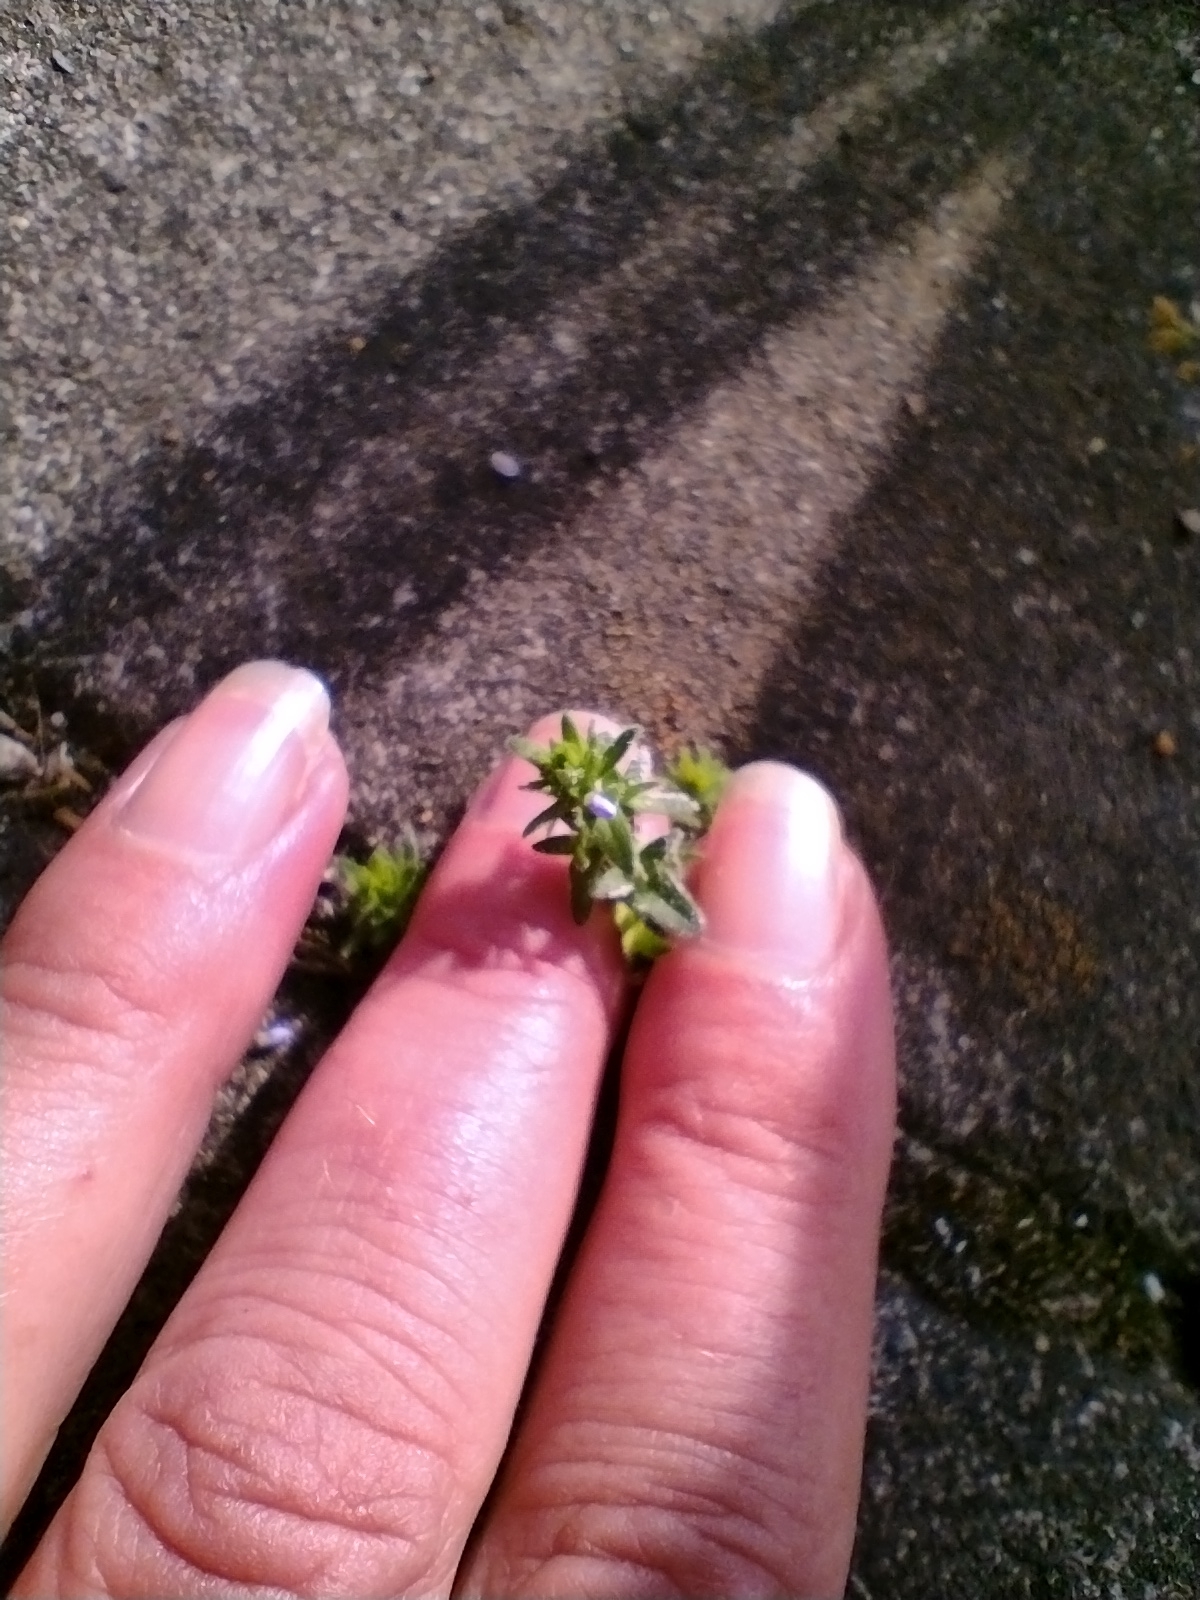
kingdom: Plantae
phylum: Tracheophyta
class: Magnoliopsida
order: Lamiales
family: Plantaginaceae
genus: Veronica
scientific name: Veronica arvensis
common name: Corn speedwell
